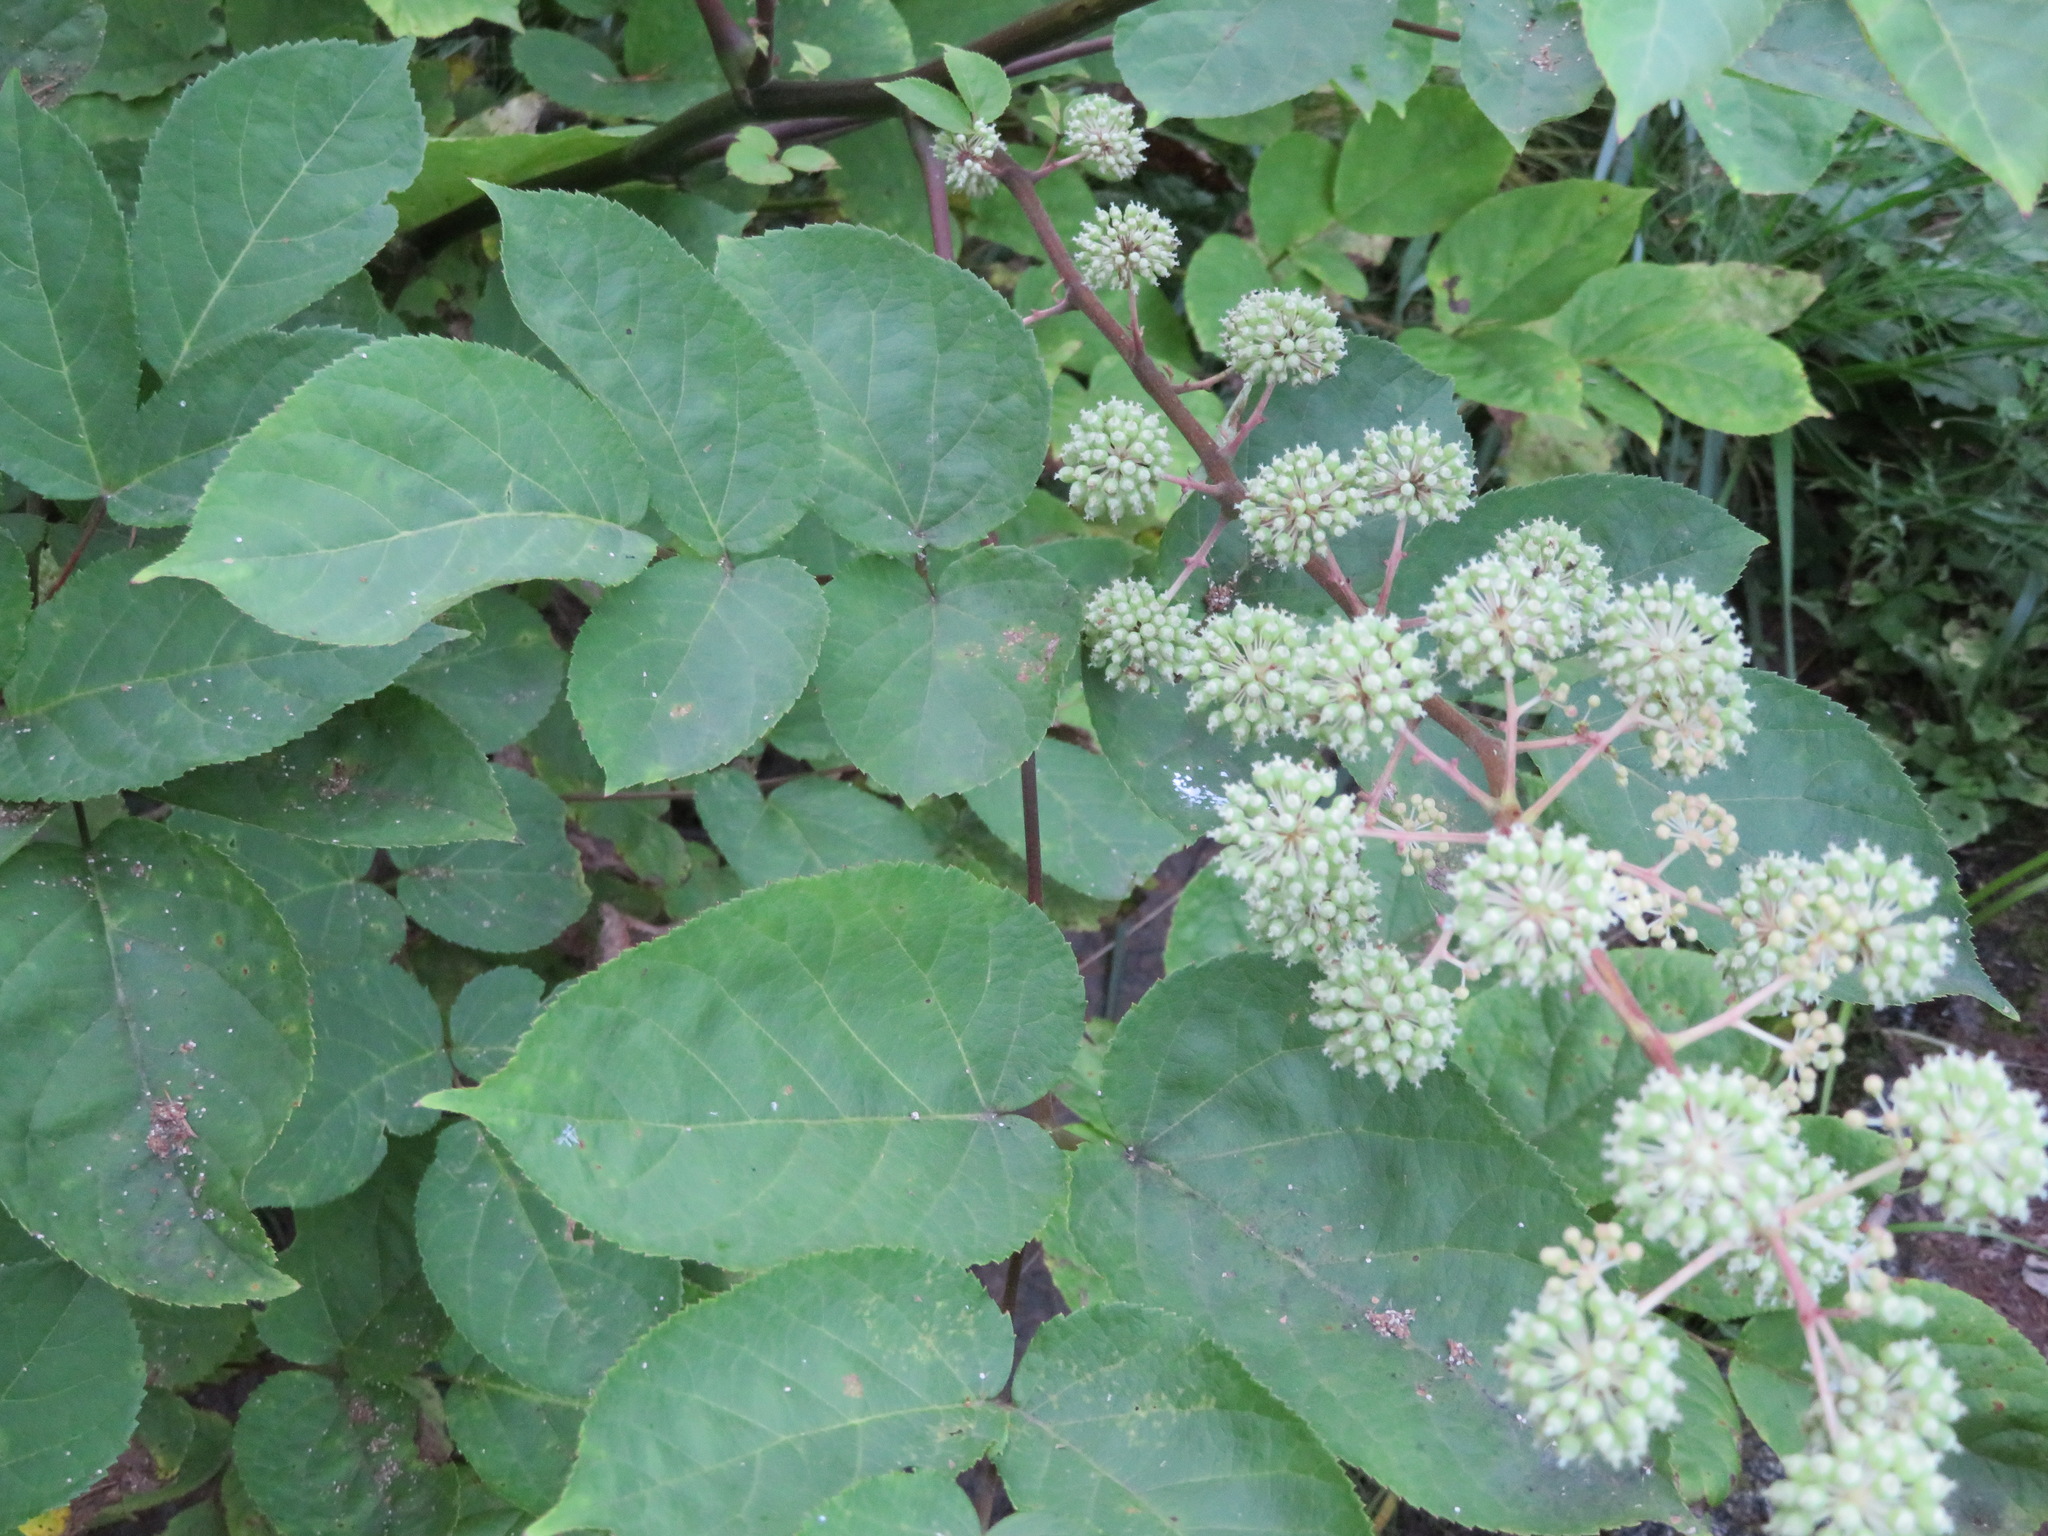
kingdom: Plantae
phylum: Tracheophyta
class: Magnoliopsida
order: Apiales
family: Araliaceae
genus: Aralia
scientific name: Aralia cordata
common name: Udo
